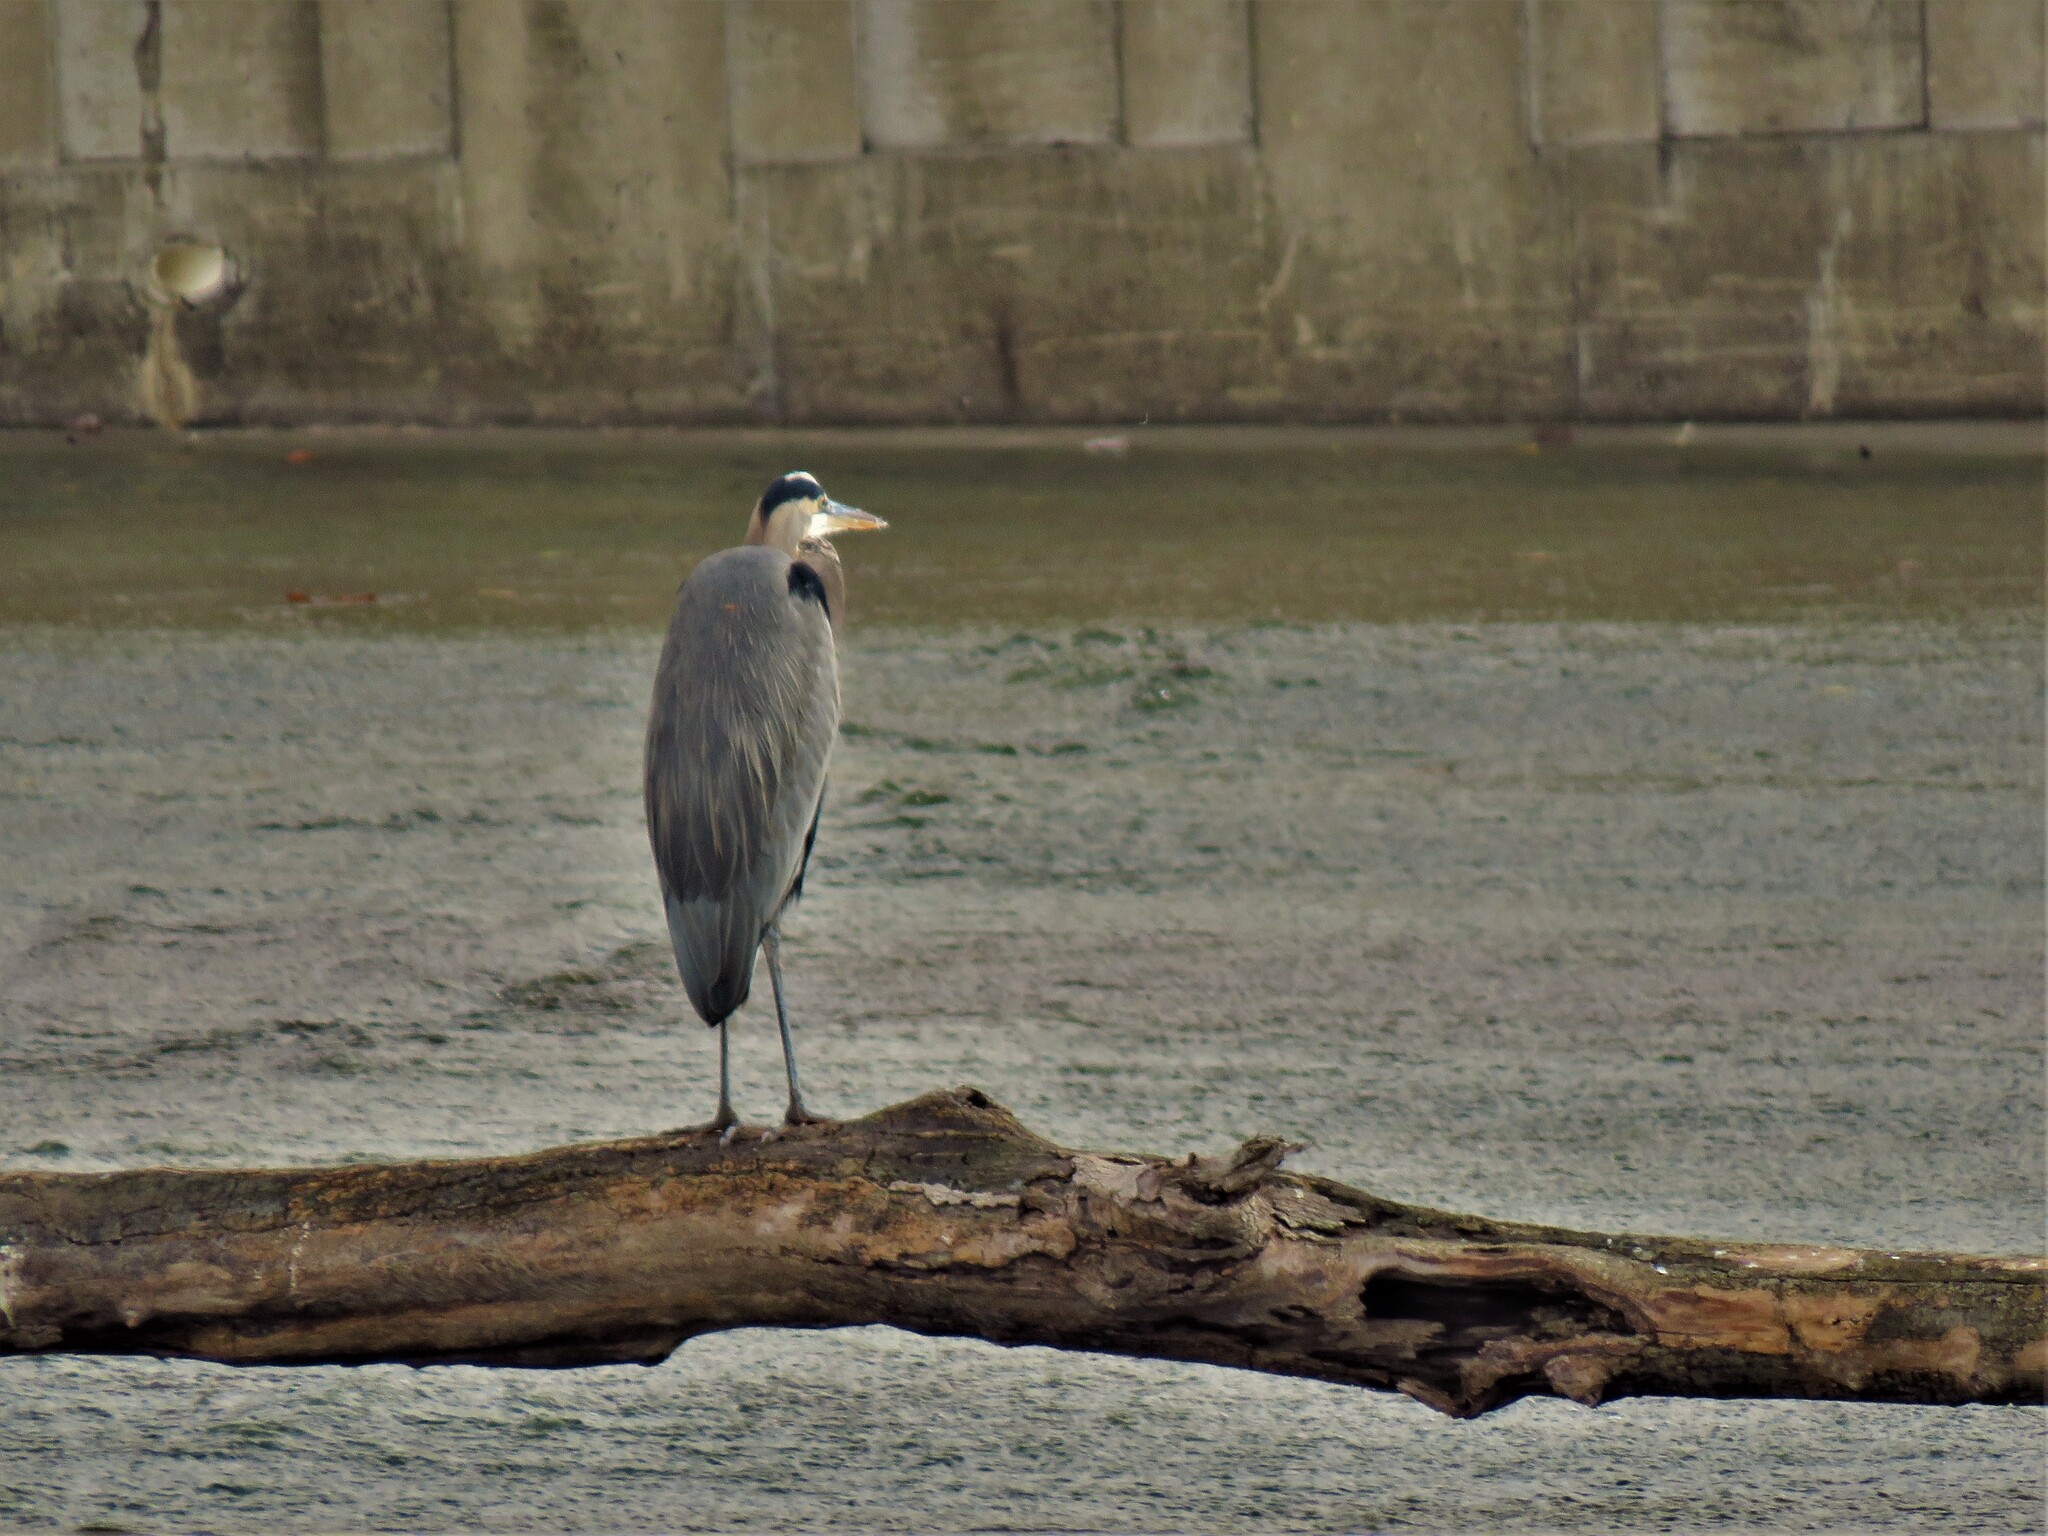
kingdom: Animalia
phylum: Chordata
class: Aves
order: Pelecaniformes
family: Ardeidae
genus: Ardea
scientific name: Ardea herodias
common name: Great blue heron
